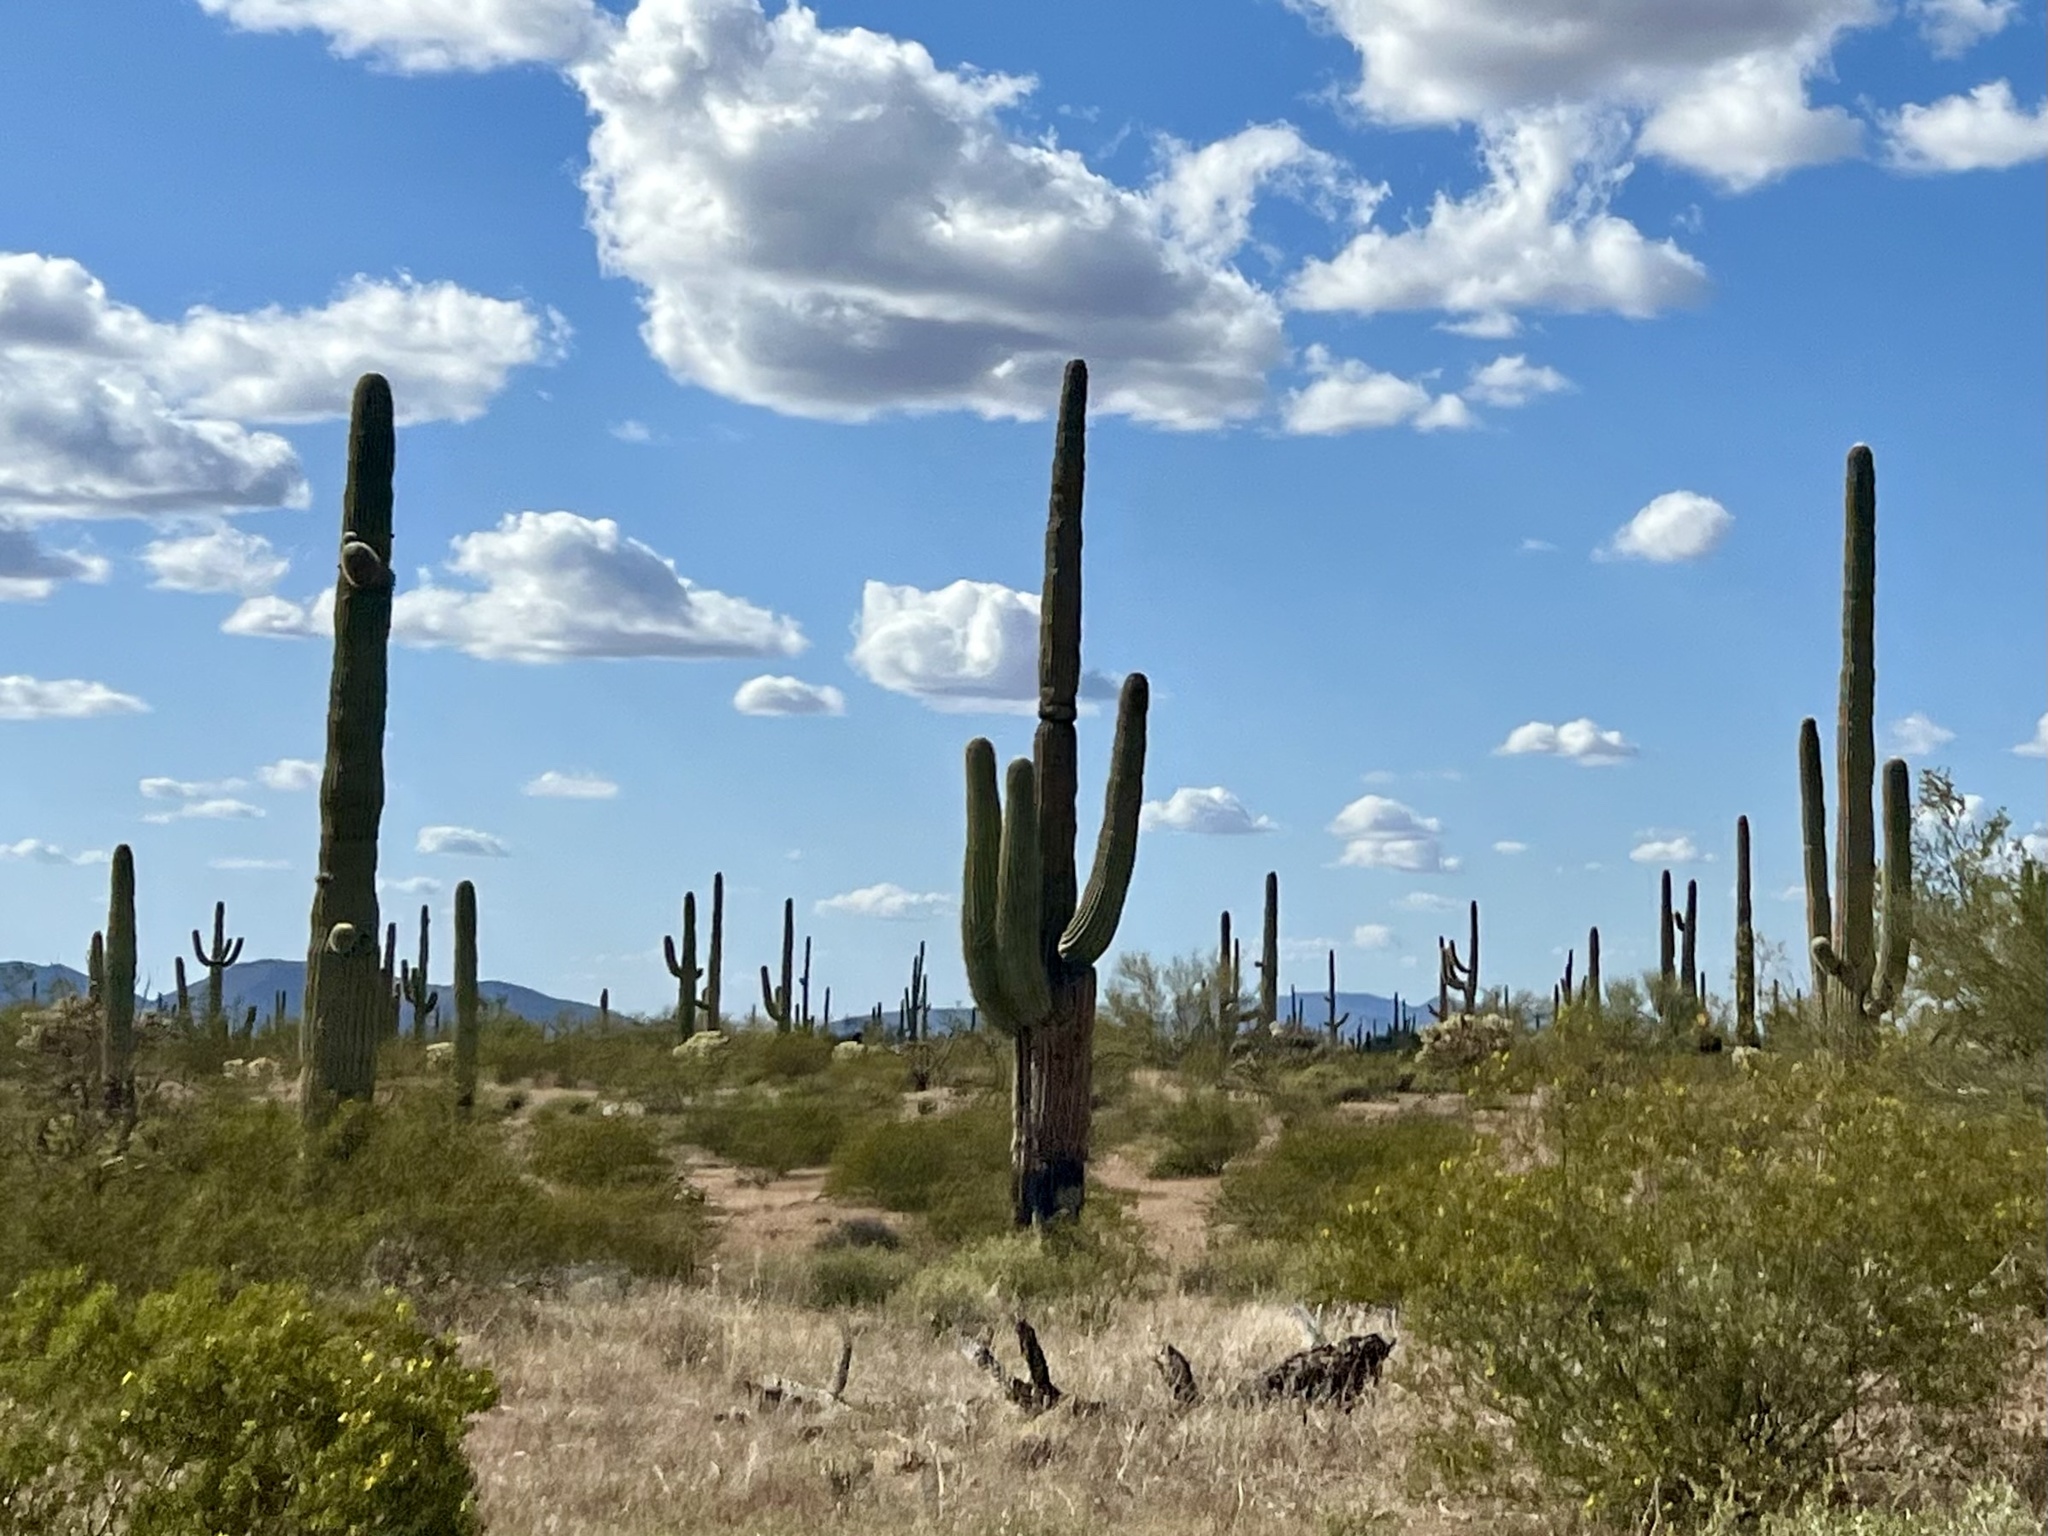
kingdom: Plantae
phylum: Tracheophyta
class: Magnoliopsida
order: Caryophyllales
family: Cactaceae
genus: Carnegiea
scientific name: Carnegiea gigantea
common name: Saguaro
